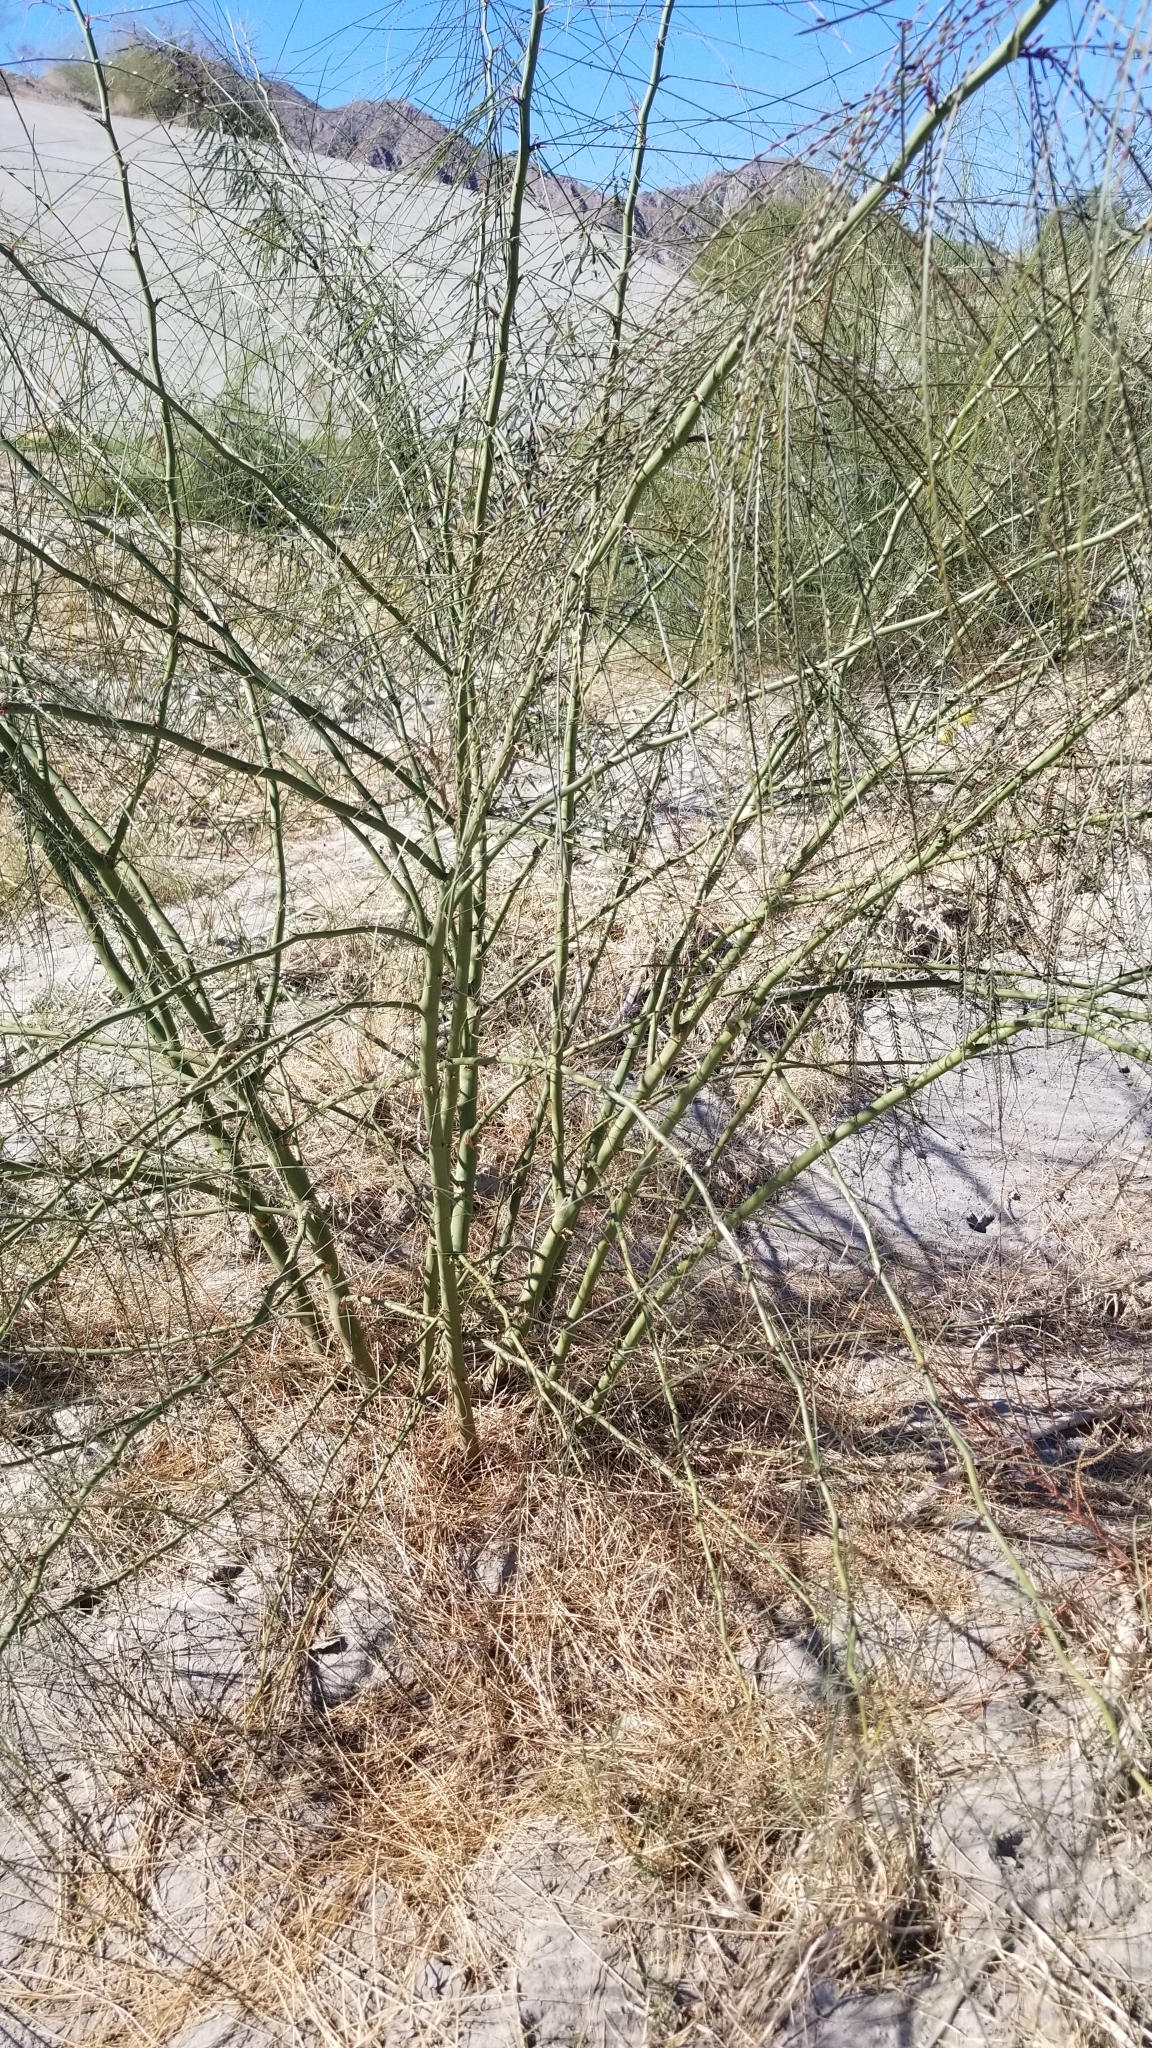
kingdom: Plantae
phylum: Tracheophyta
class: Magnoliopsida
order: Fabales
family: Fabaceae
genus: Parkinsonia
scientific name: Parkinsonia aculeata
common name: Jerusalem thorn
